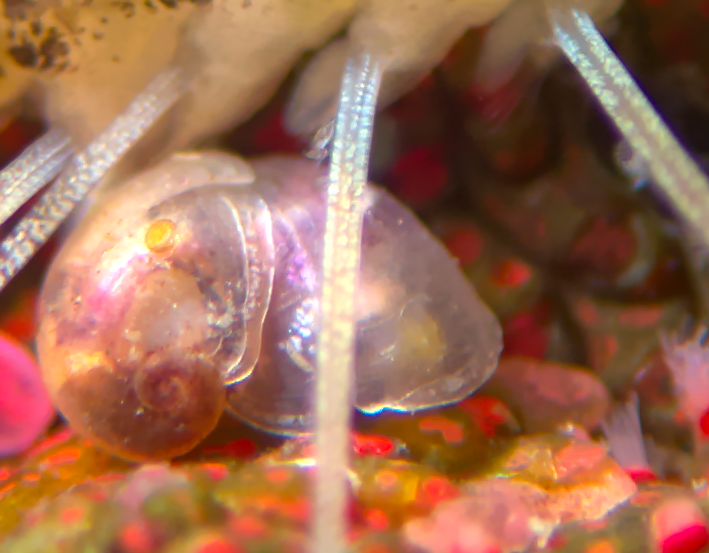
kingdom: Animalia
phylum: Mollusca
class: Gastropoda
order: Lepetellida
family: Scissurellidae
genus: Incisura
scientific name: Incisura rosea
